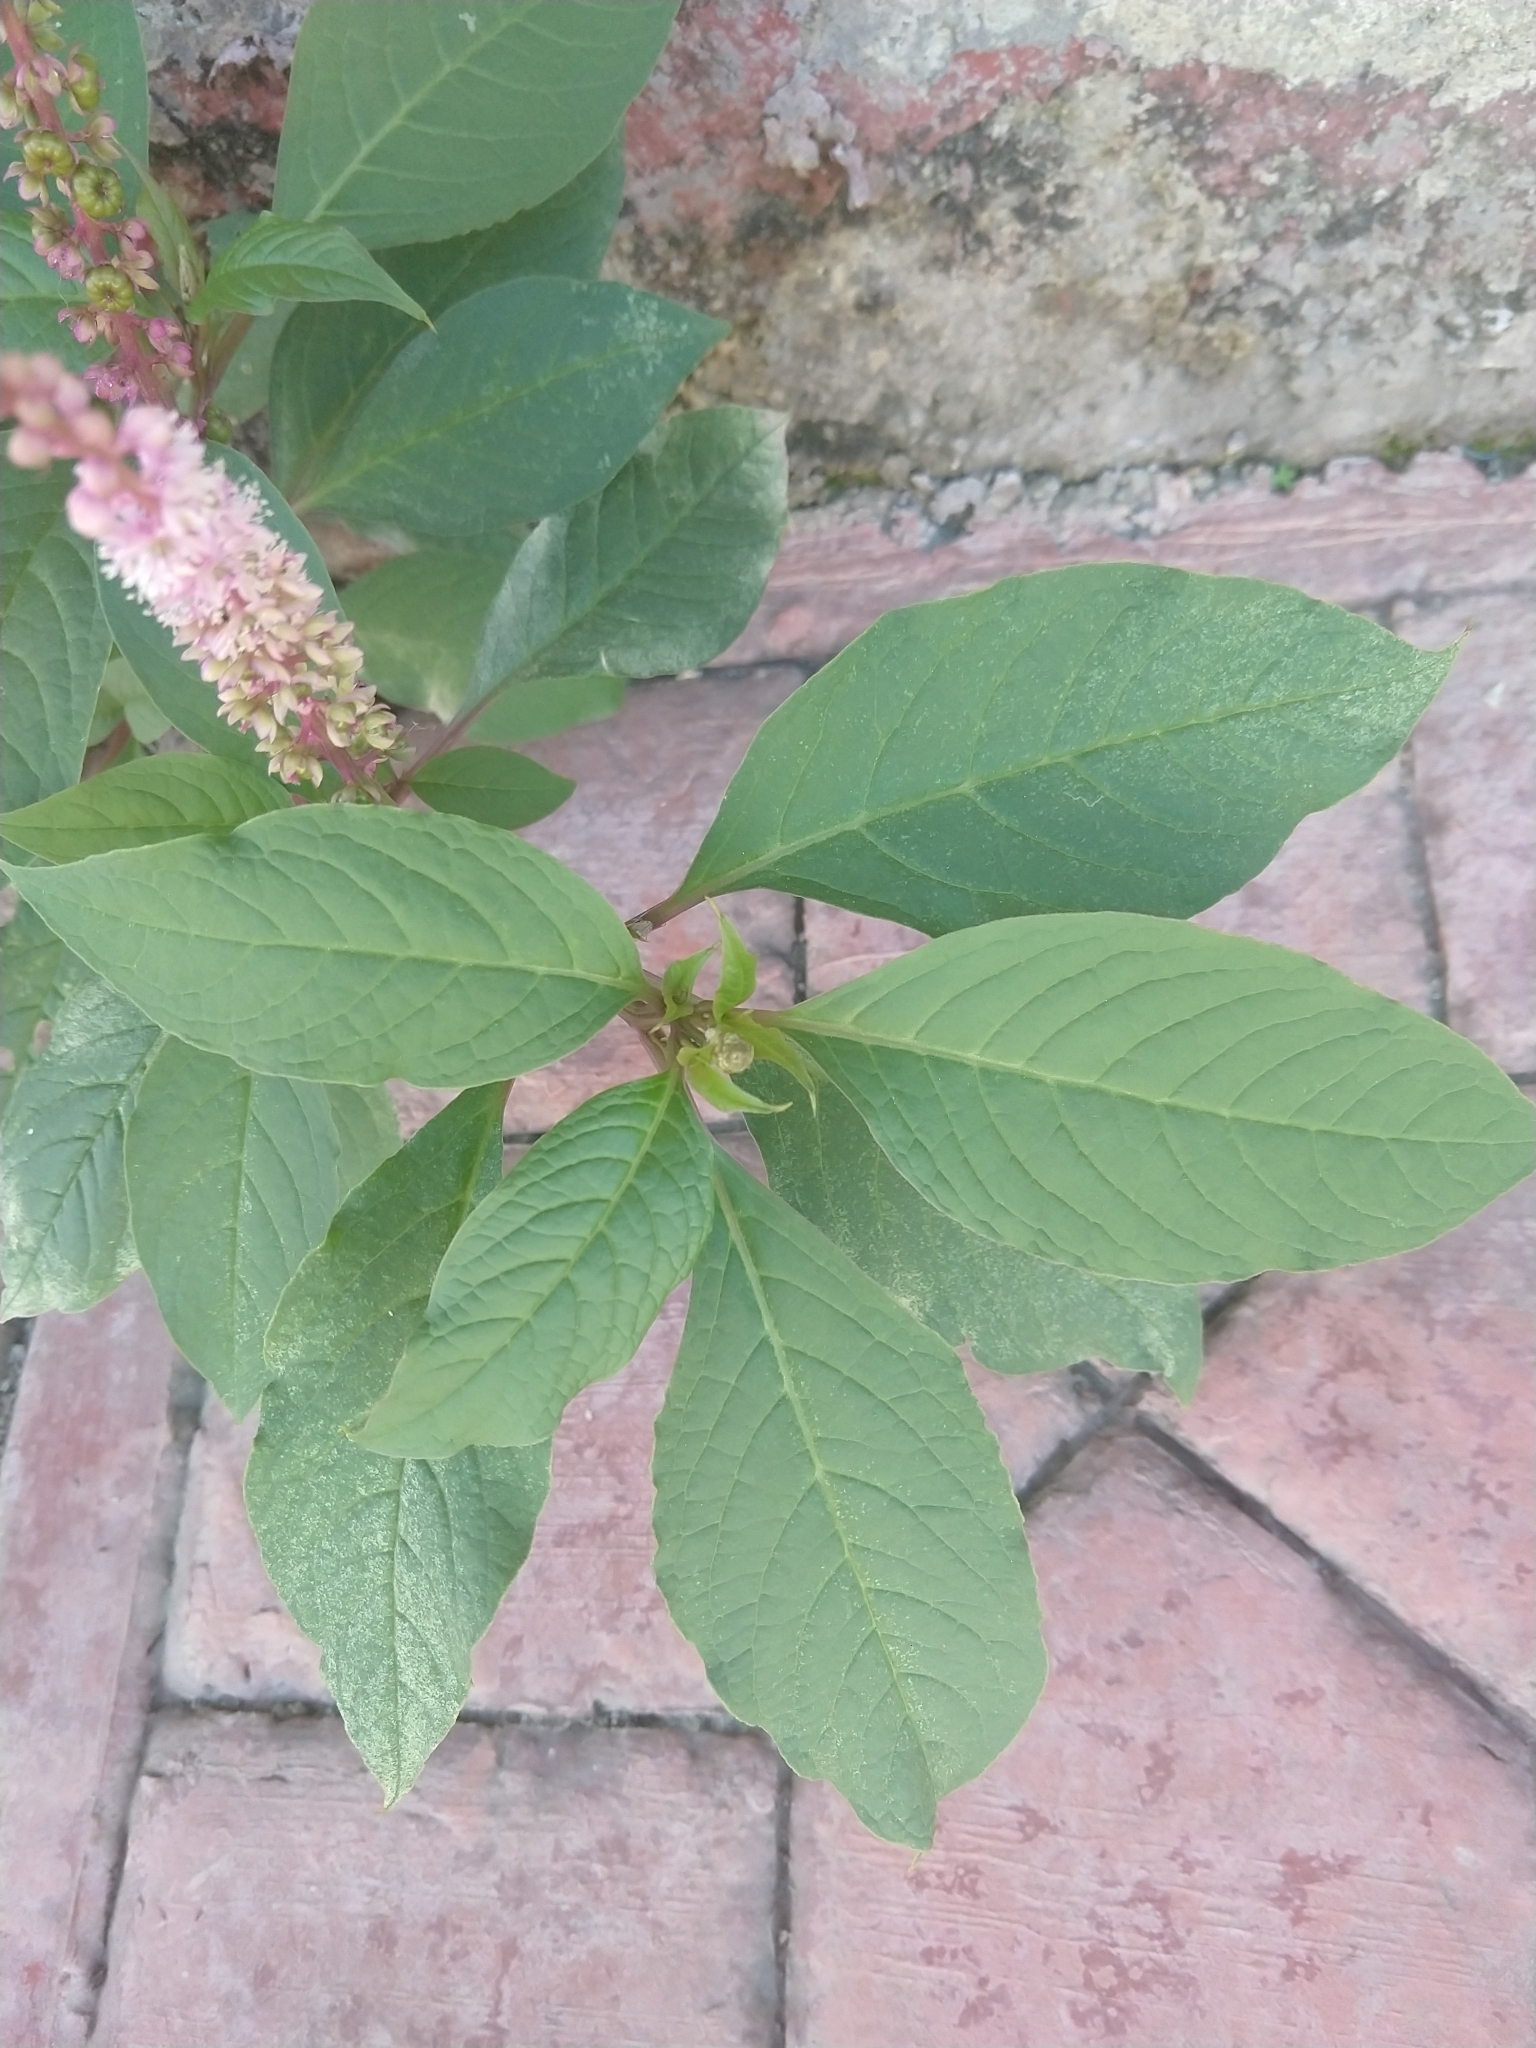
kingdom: Plantae
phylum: Tracheophyta
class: Magnoliopsida
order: Caryophyllales
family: Phytolaccaceae
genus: Phytolacca
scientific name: Phytolacca icosandra
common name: Button pokeweed
